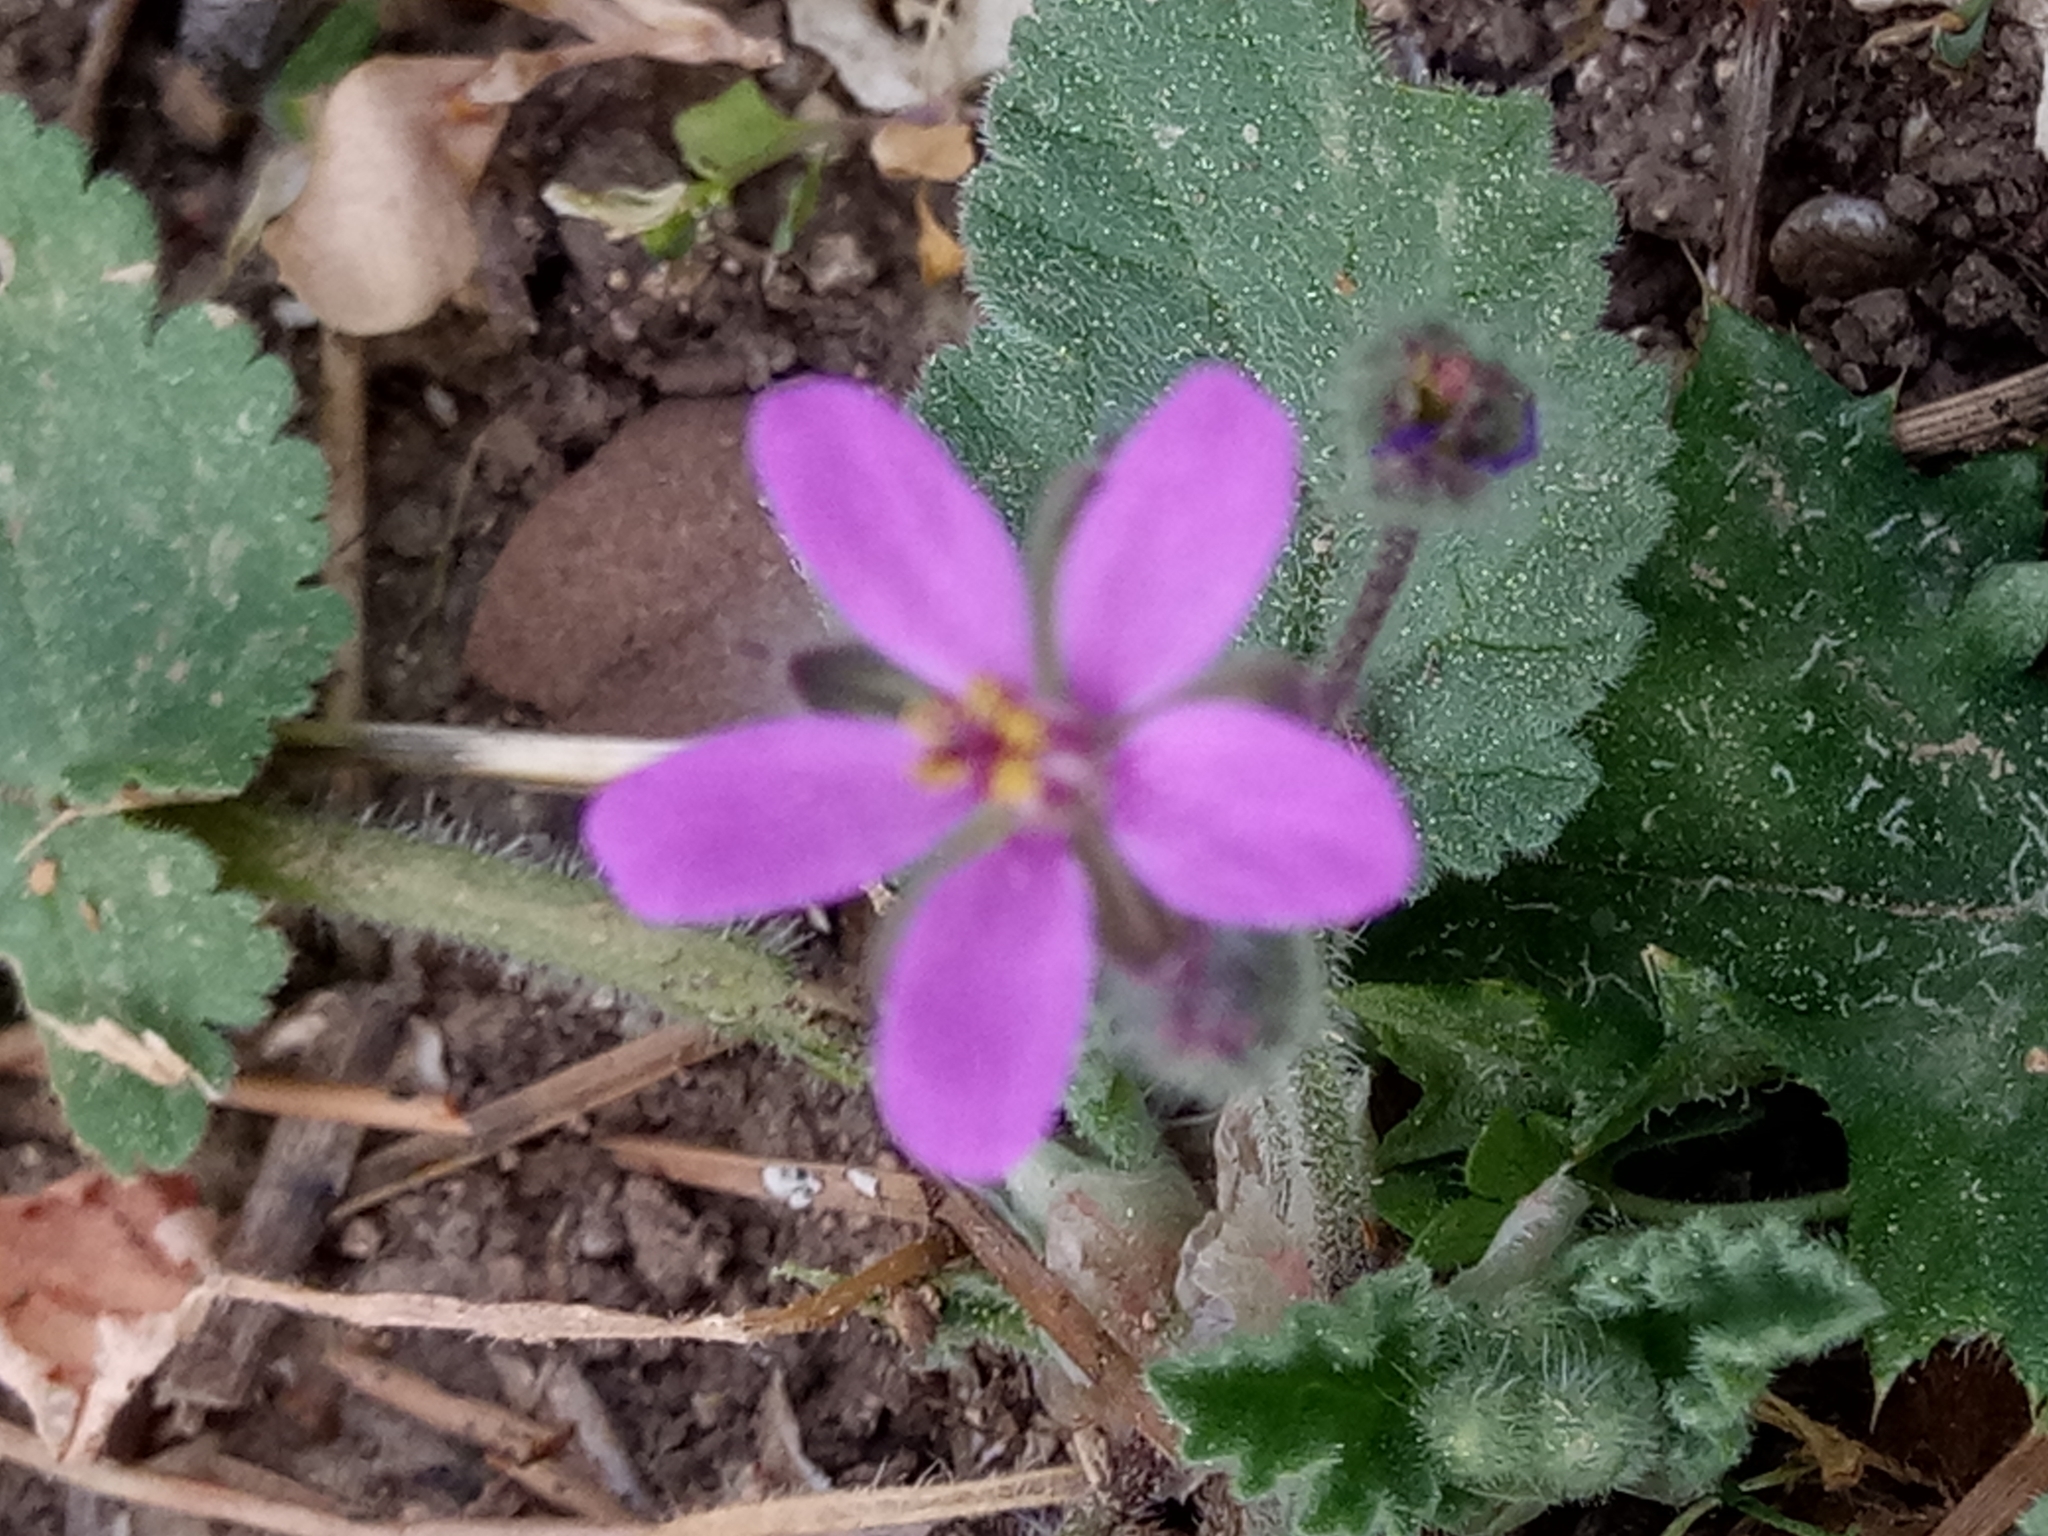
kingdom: Plantae
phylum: Tracheophyta
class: Magnoliopsida
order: Geraniales
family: Geraniaceae
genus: Erodium
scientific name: Erodium chium
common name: Three-lobed stork's-bill
